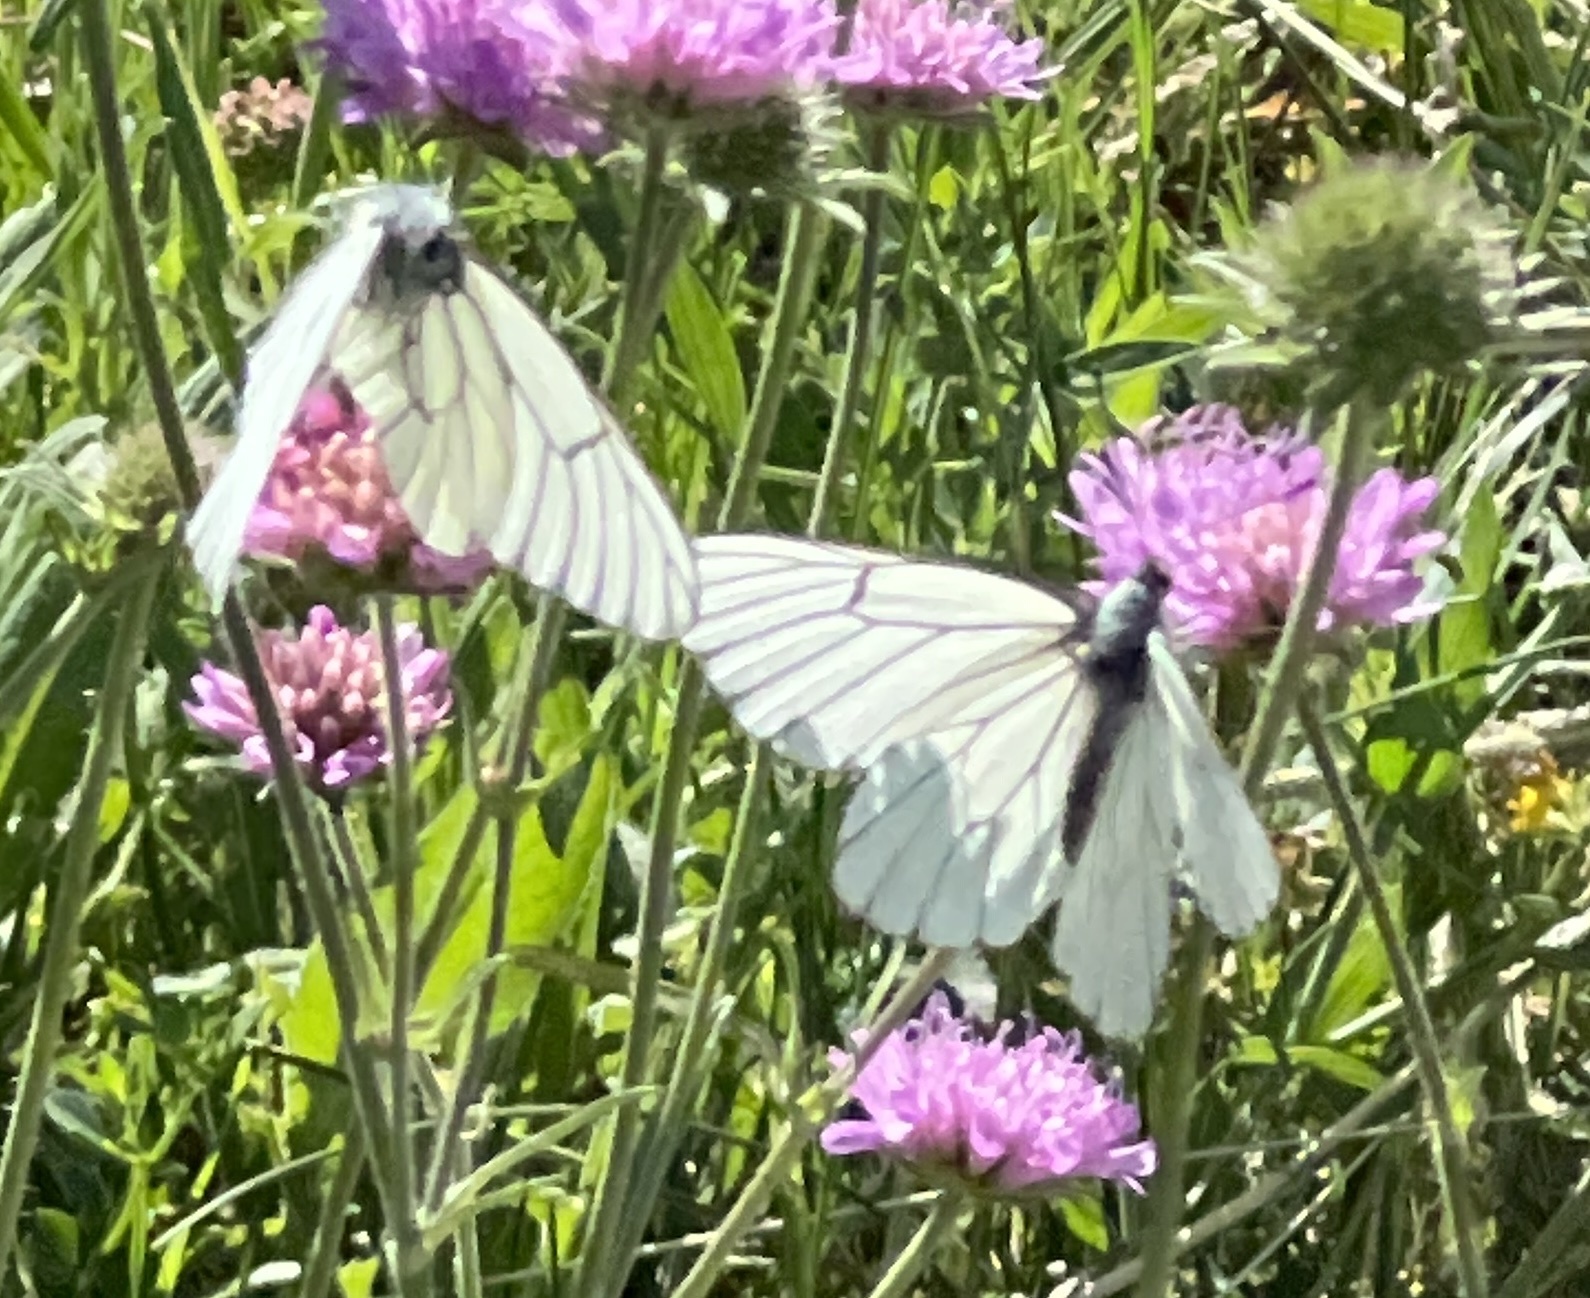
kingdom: Animalia
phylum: Arthropoda
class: Insecta
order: Lepidoptera
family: Pieridae
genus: Aporia
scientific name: Aporia crataegi
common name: Black-veined white
